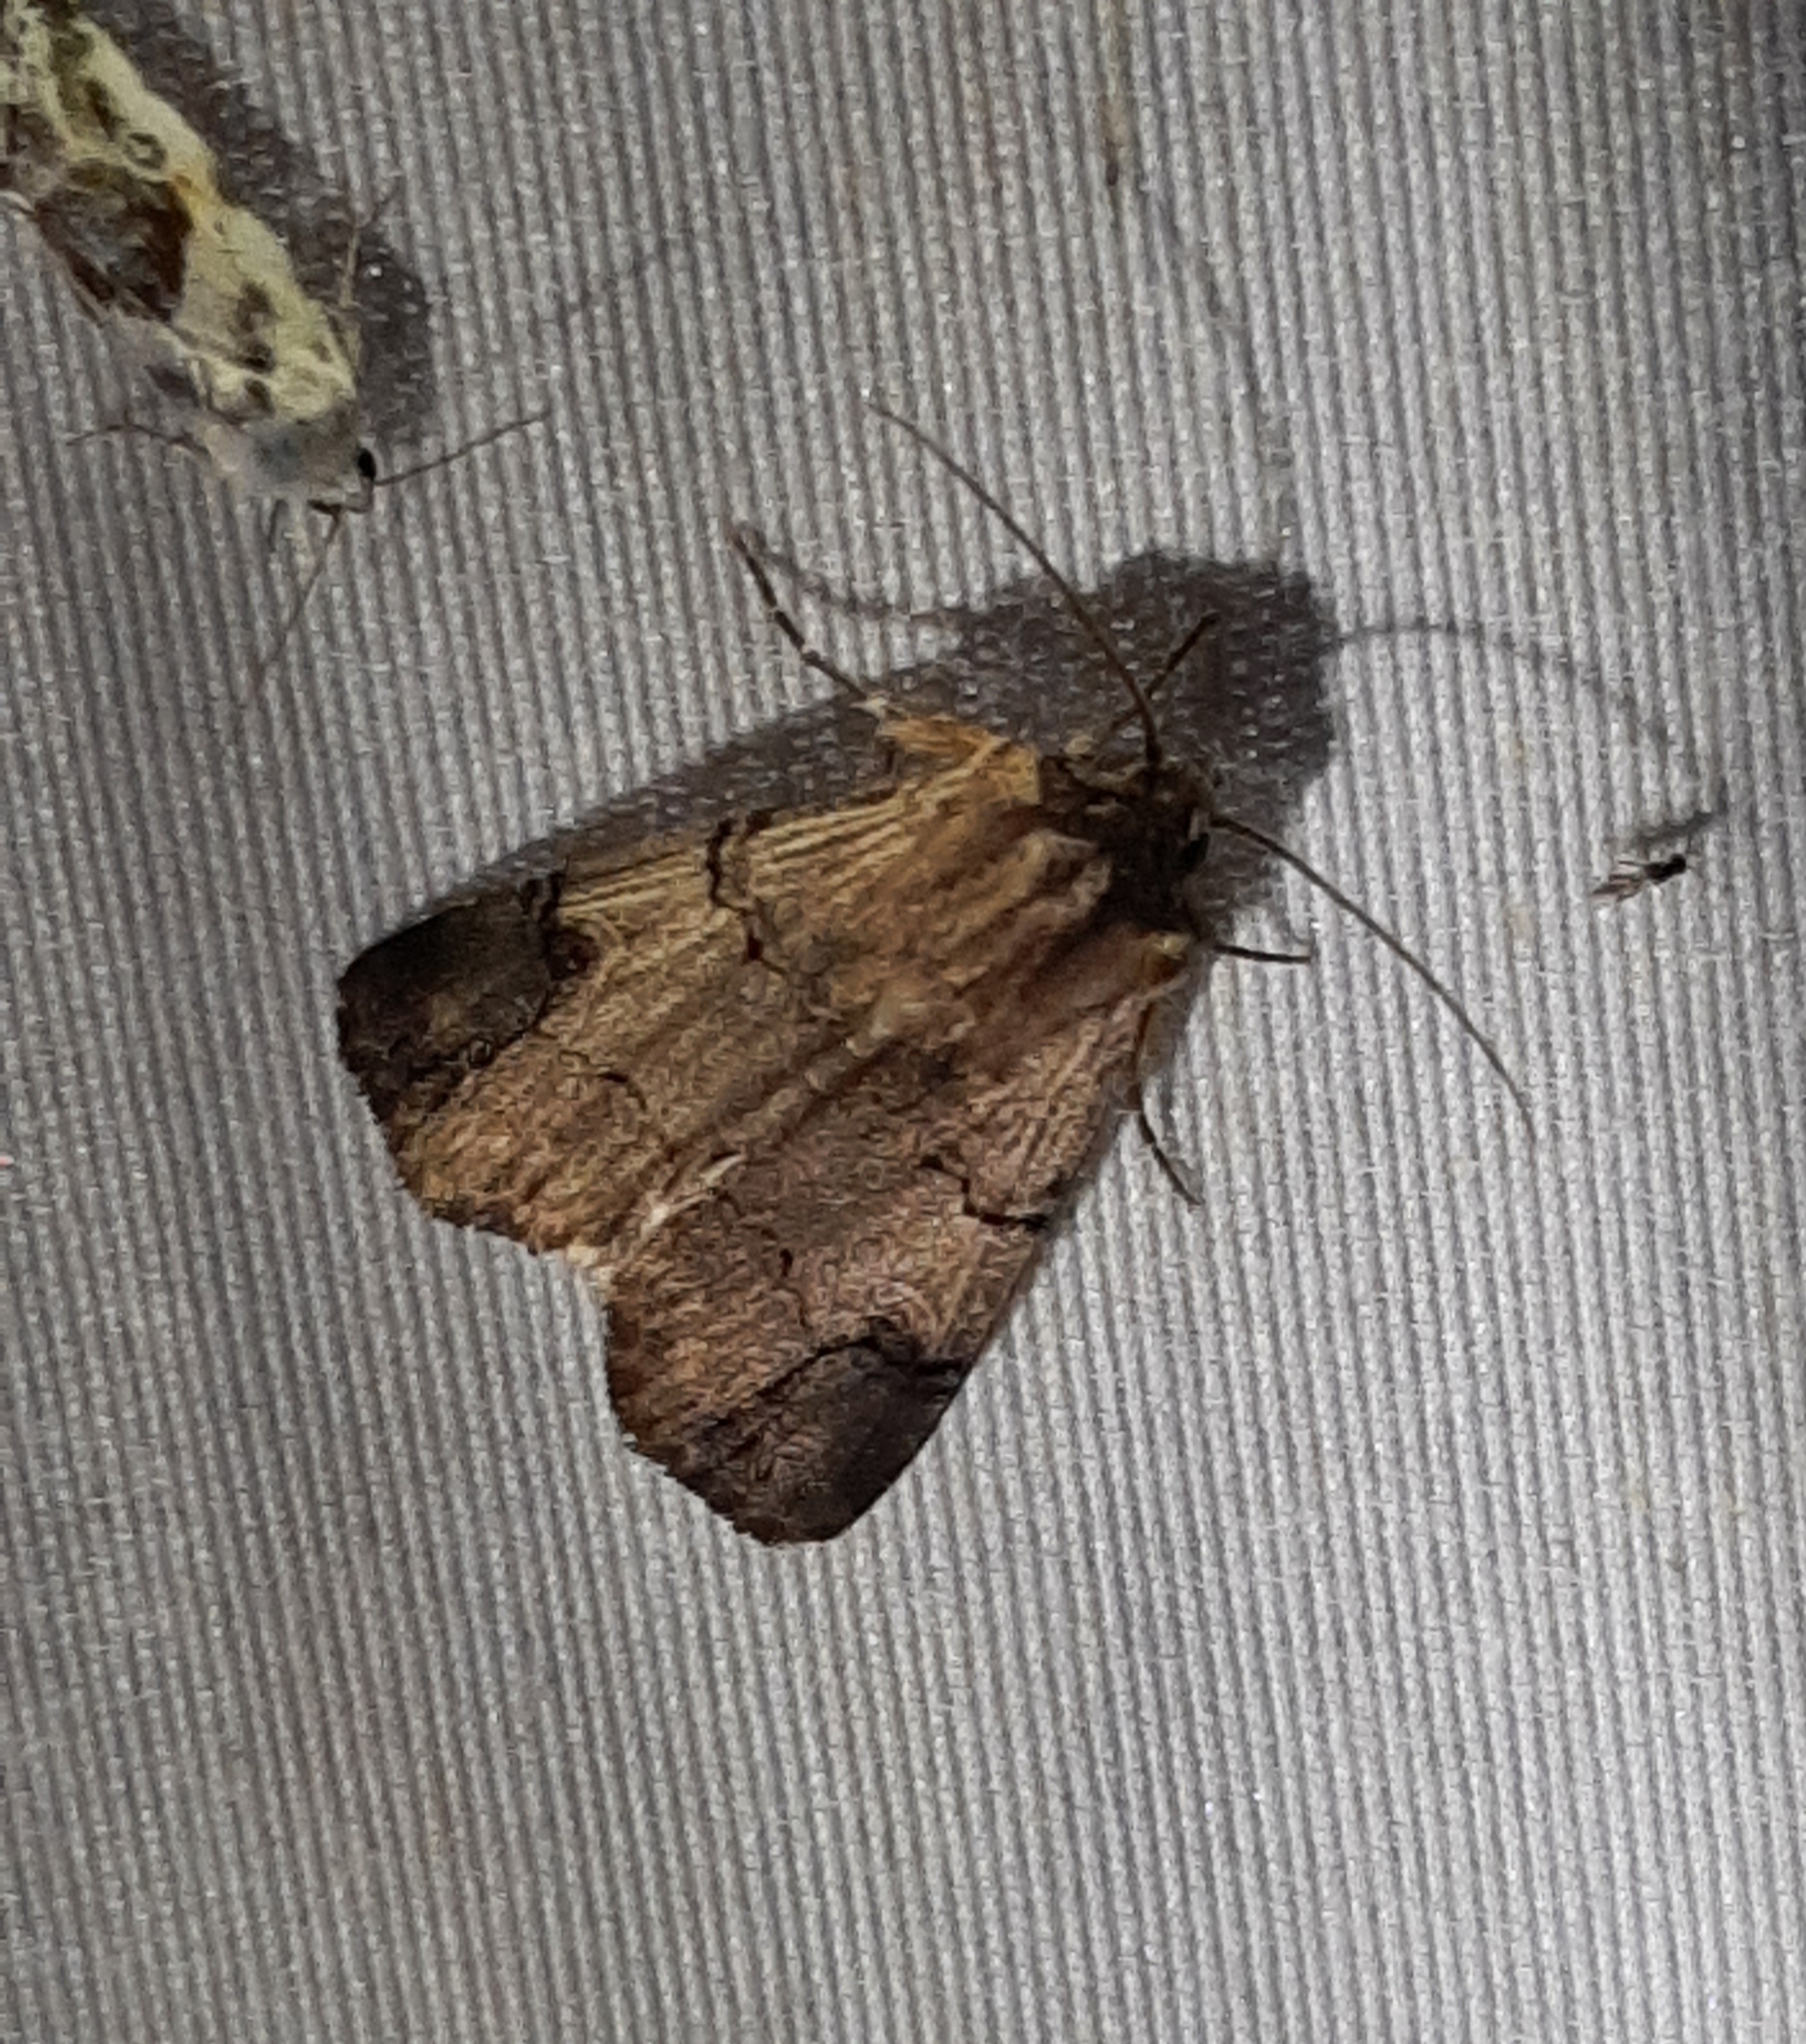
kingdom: Animalia
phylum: Arthropoda
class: Insecta
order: Lepidoptera
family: Noctuidae
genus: Dichagyris
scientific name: Dichagyris grotei
